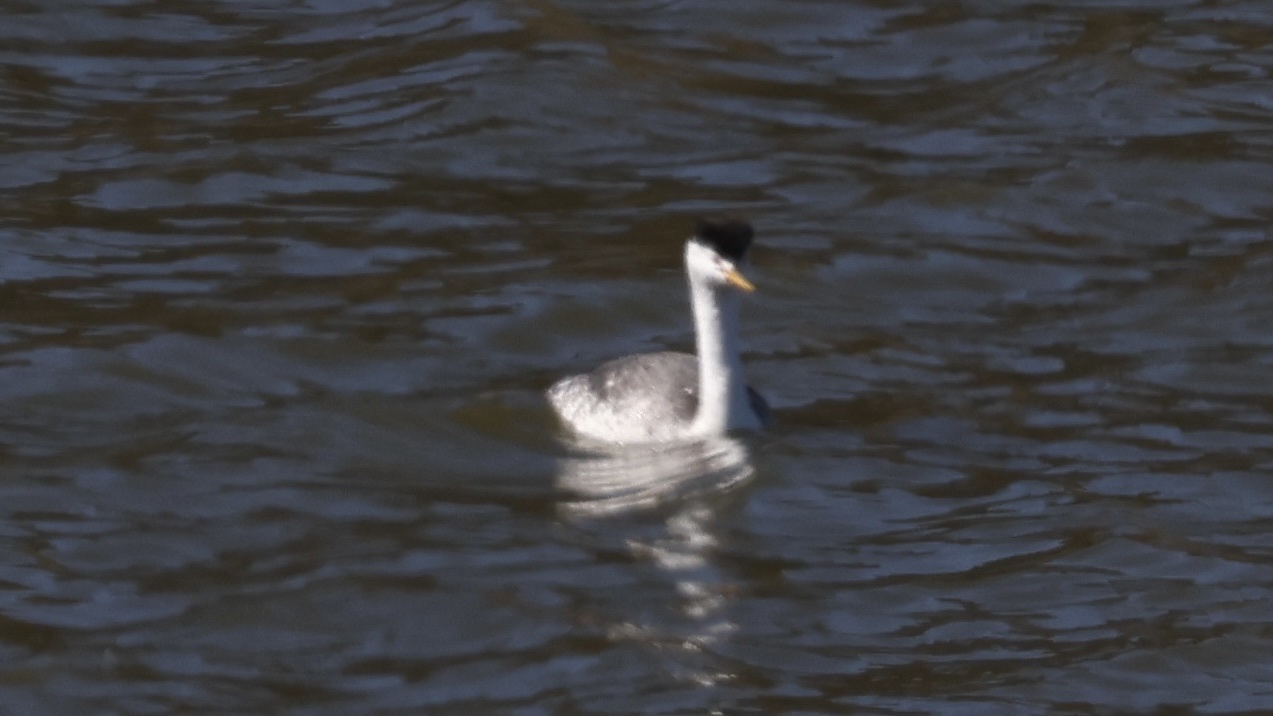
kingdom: Animalia
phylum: Chordata
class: Aves
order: Podicipediformes
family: Podicipedidae
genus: Aechmophorus
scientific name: Aechmophorus clarkii
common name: Clark's grebe
